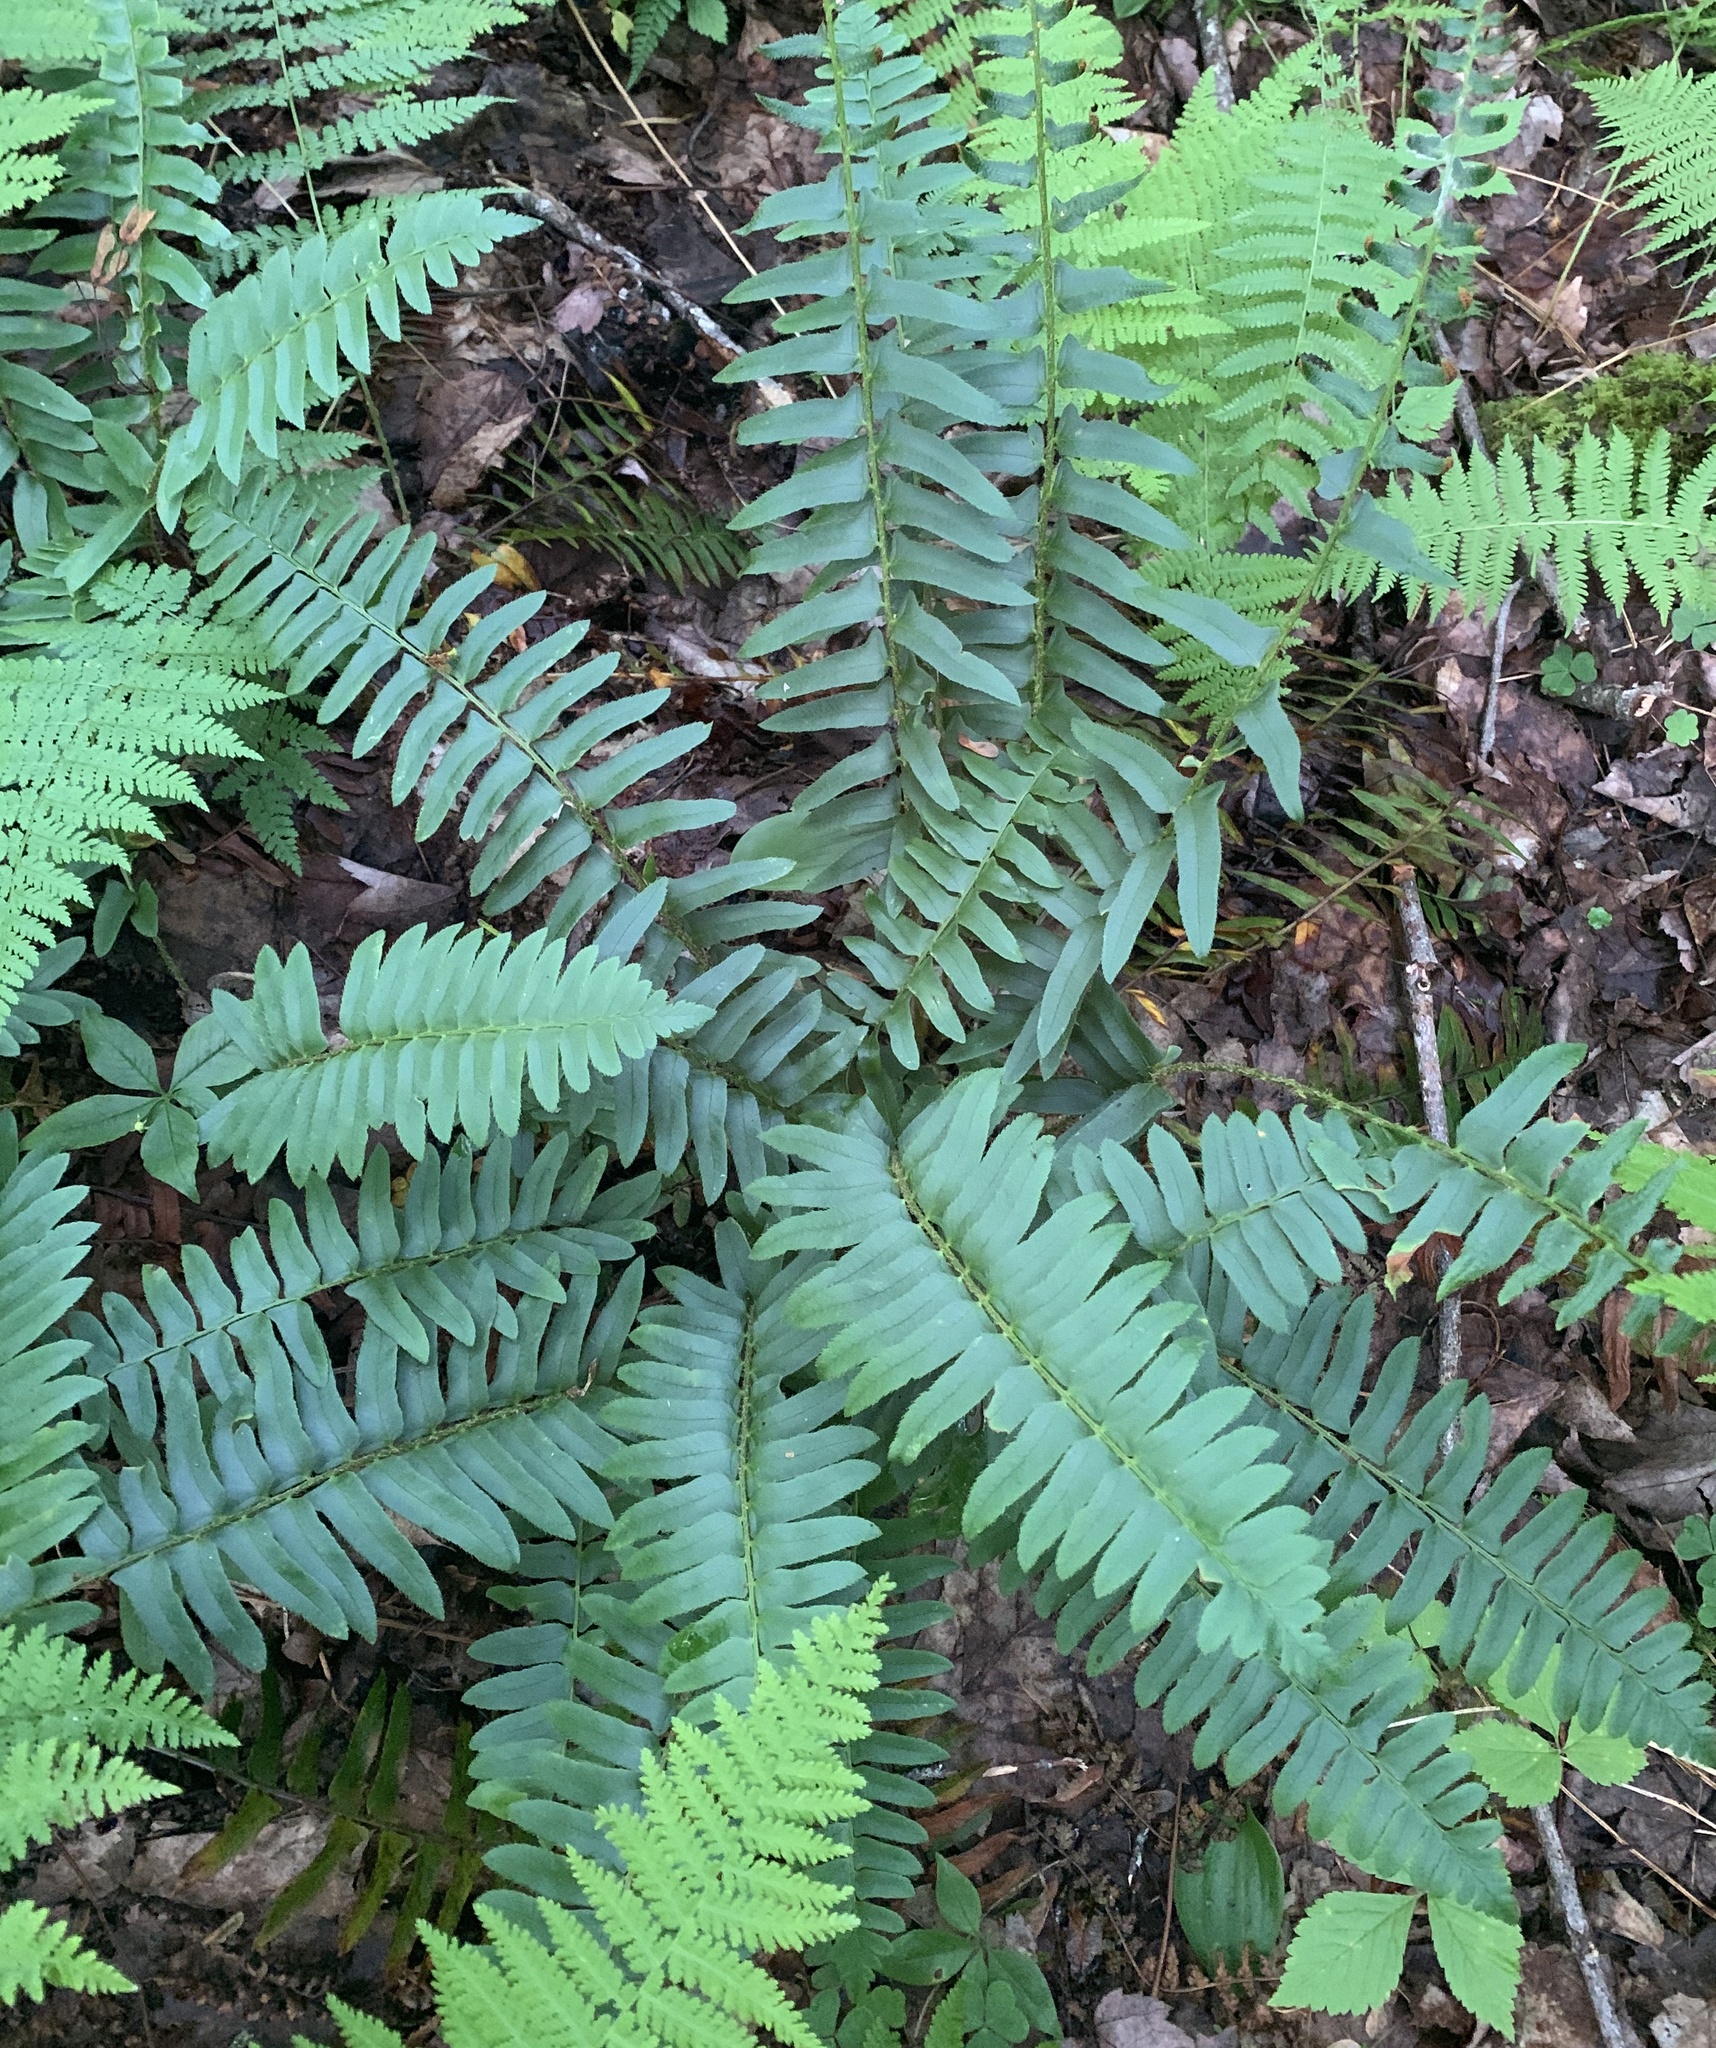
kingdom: Plantae
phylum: Tracheophyta
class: Polypodiopsida
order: Polypodiales
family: Dryopteridaceae
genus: Polystichum
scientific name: Polystichum acrostichoides
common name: Christmas fern
